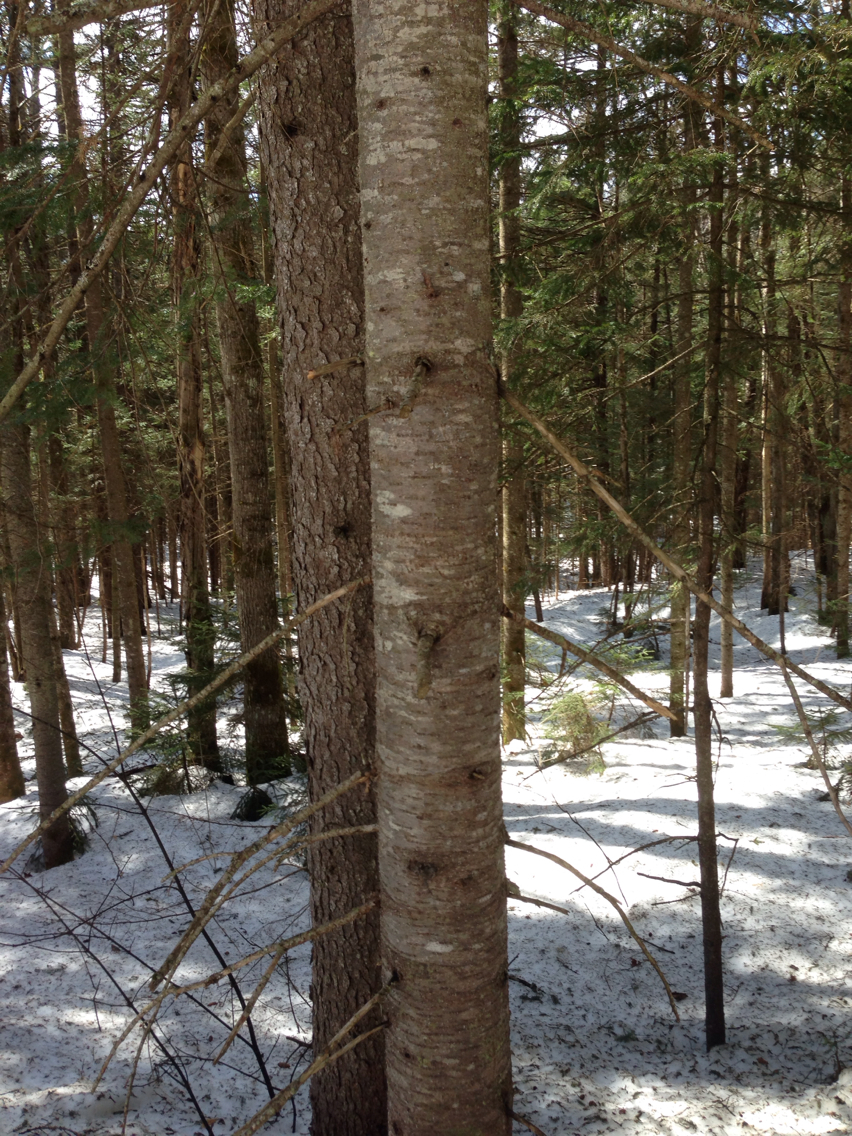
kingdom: Plantae
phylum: Tracheophyta
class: Pinopsida
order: Pinales
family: Pinaceae
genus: Abies
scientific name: Abies balsamea
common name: Balsam fir
